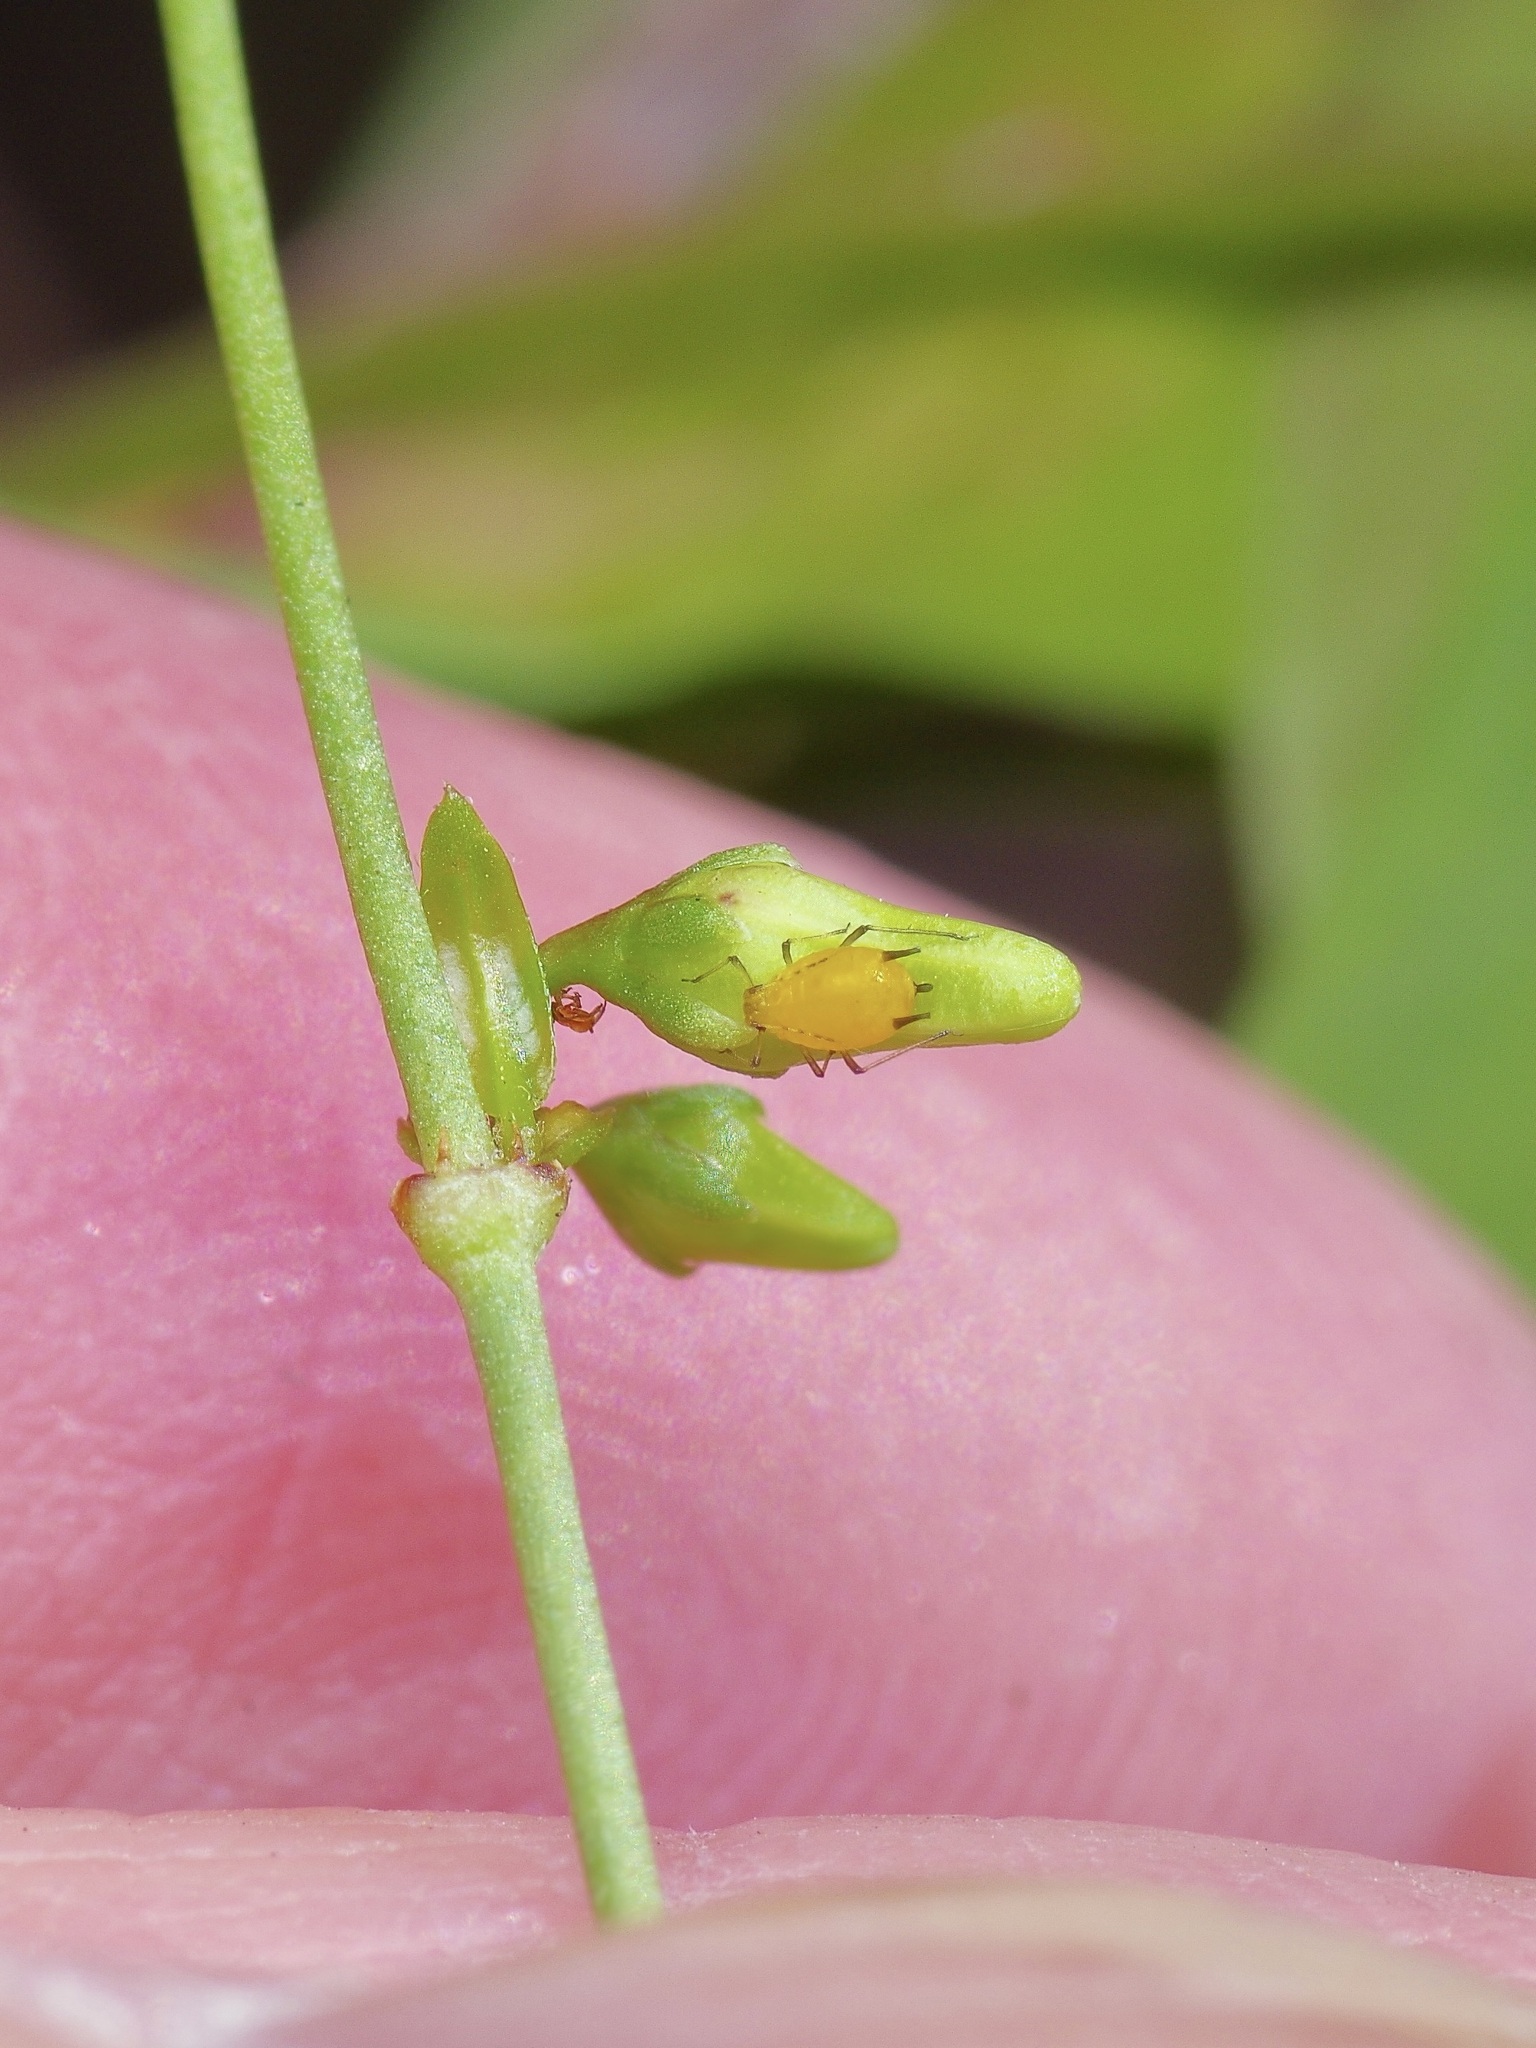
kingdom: Plantae
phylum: Tracheophyta
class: Magnoliopsida
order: Gentianales
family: Apocynaceae
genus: Metastelma
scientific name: Metastelma barbigerum
